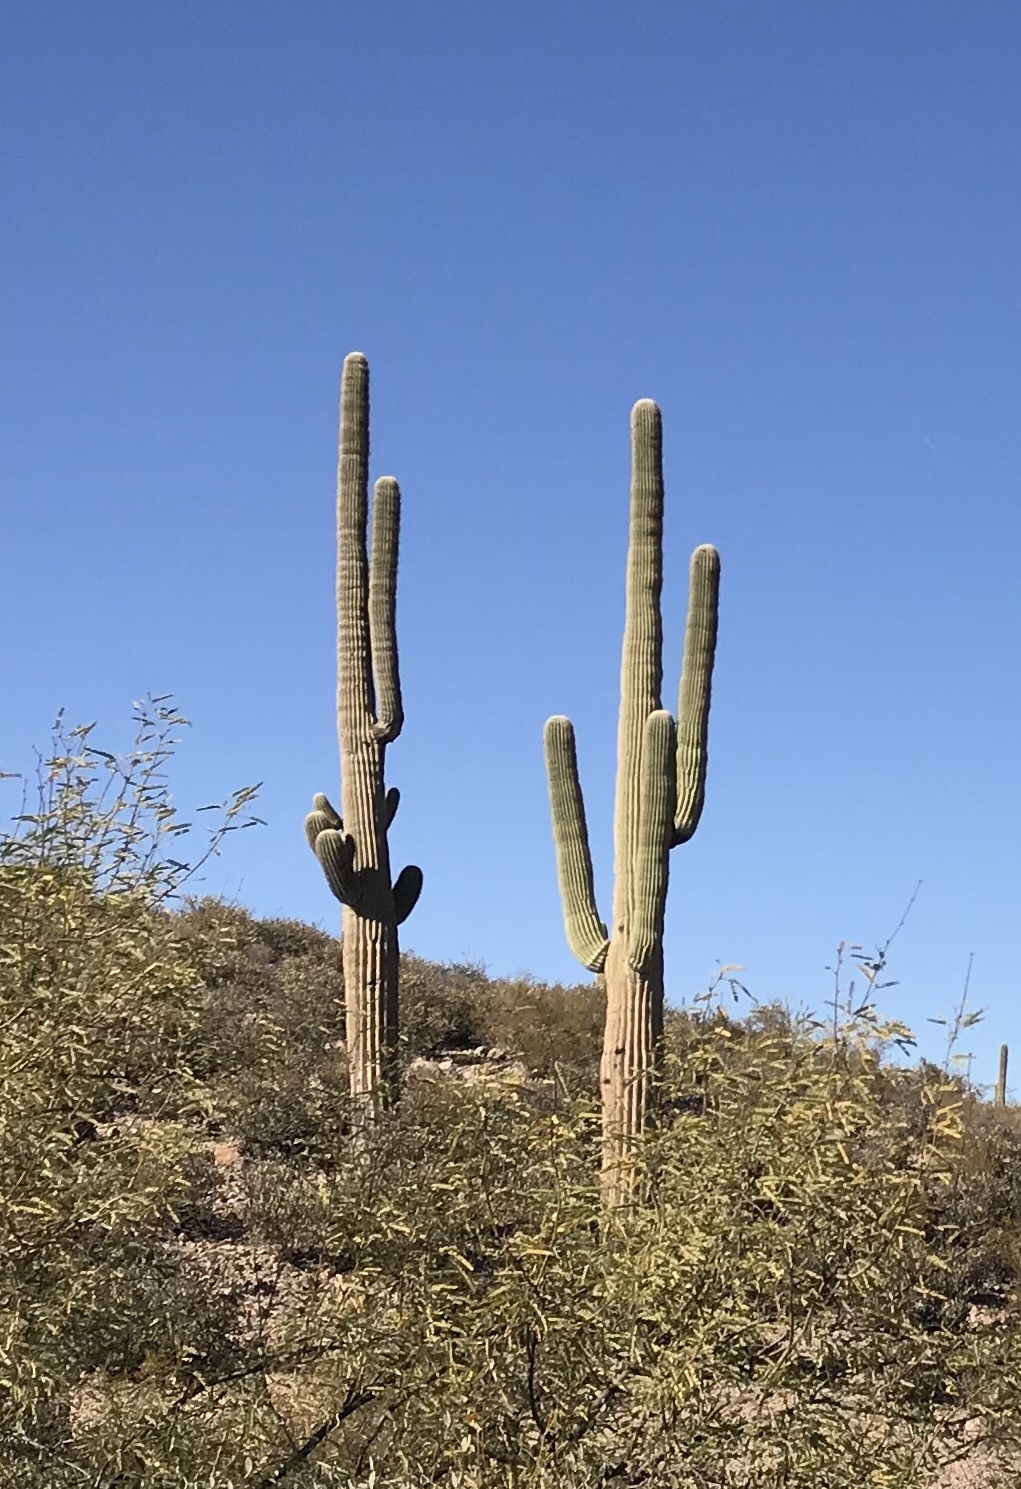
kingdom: Plantae
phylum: Tracheophyta
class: Magnoliopsida
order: Caryophyllales
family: Cactaceae
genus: Carnegiea
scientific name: Carnegiea gigantea
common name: Saguaro
